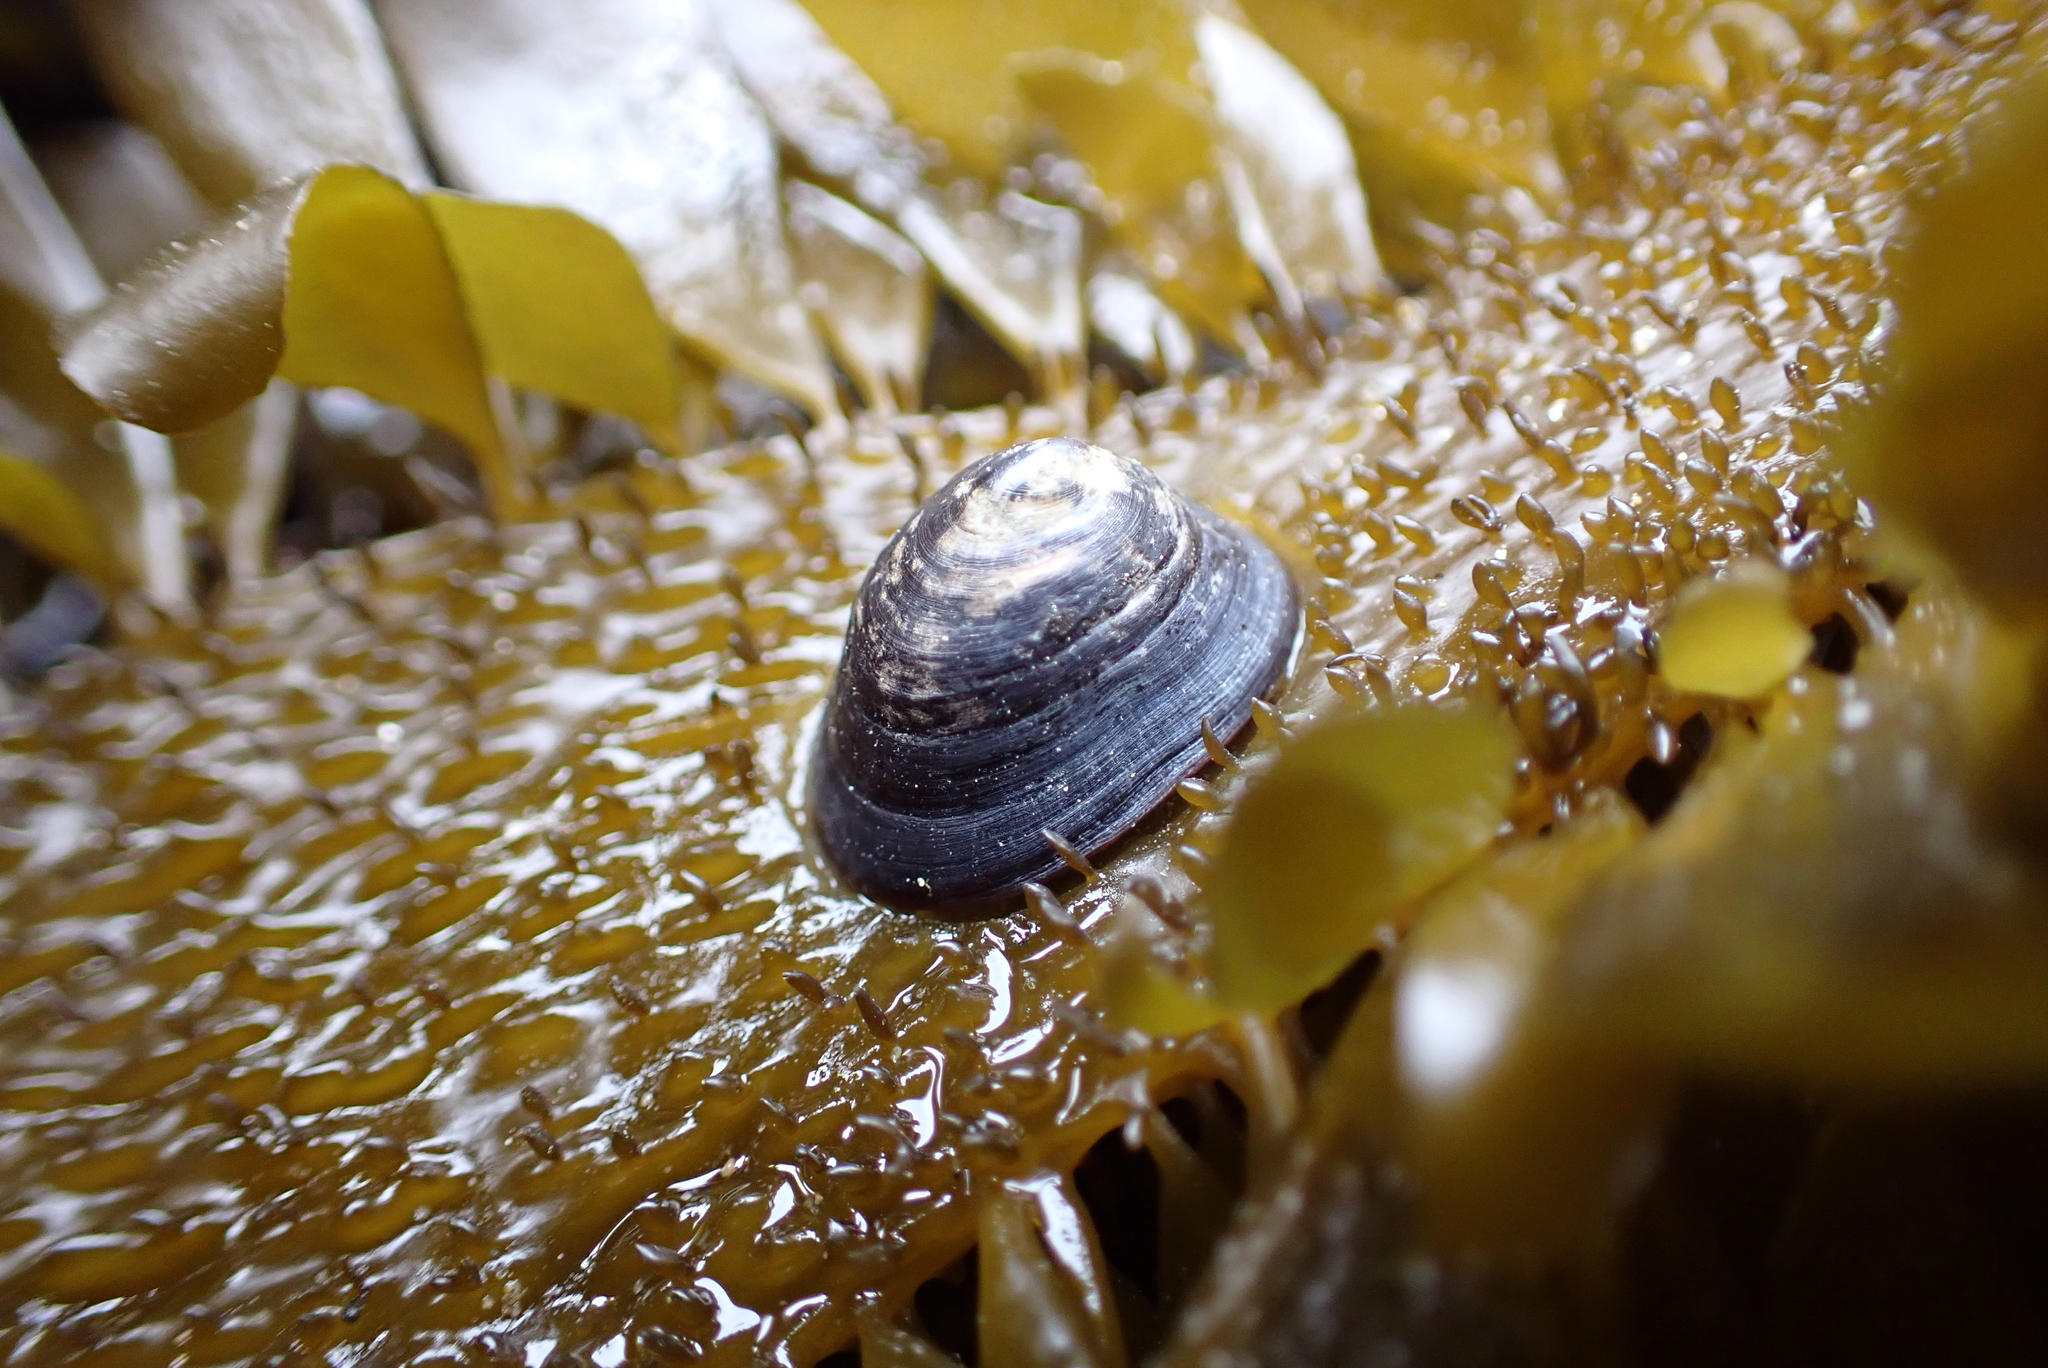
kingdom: Animalia
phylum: Mollusca
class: Gastropoda
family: Lottiidae
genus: Discurria
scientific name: Discurria insessa
